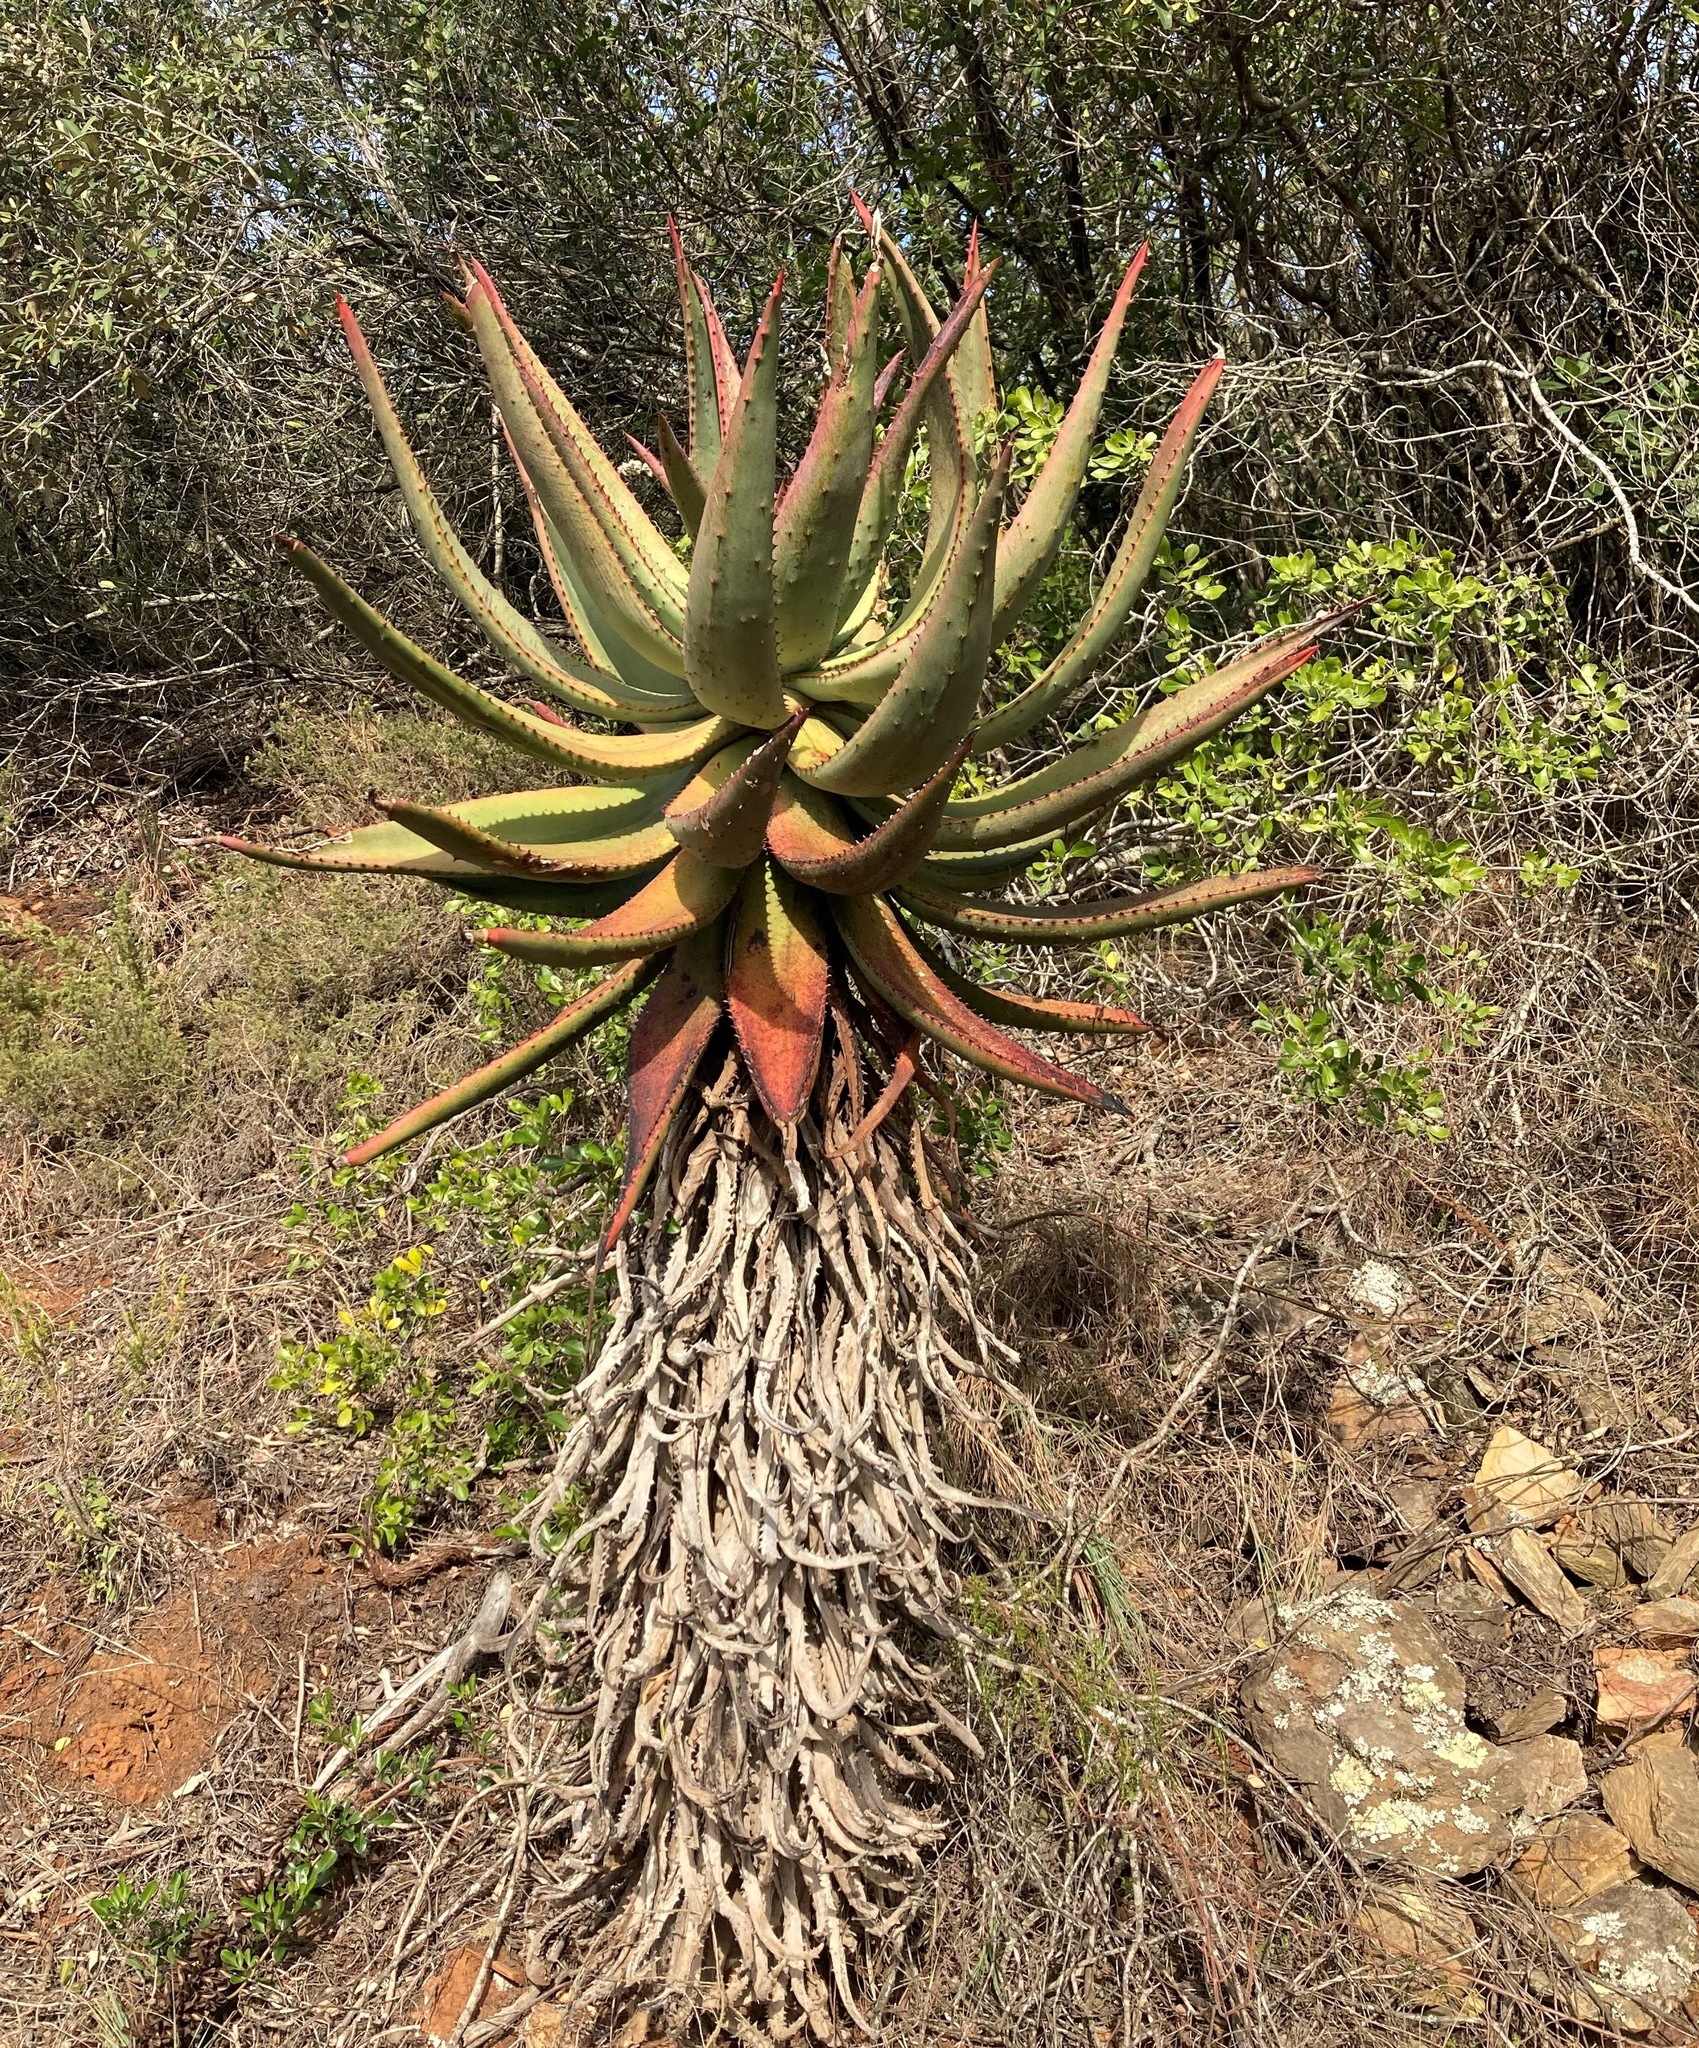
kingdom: Plantae
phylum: Tracheophyta
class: Liliopsida
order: Asparagales
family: Asphodelaceae
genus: Aloe
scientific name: Aloe ferox
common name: Bitter aloe
